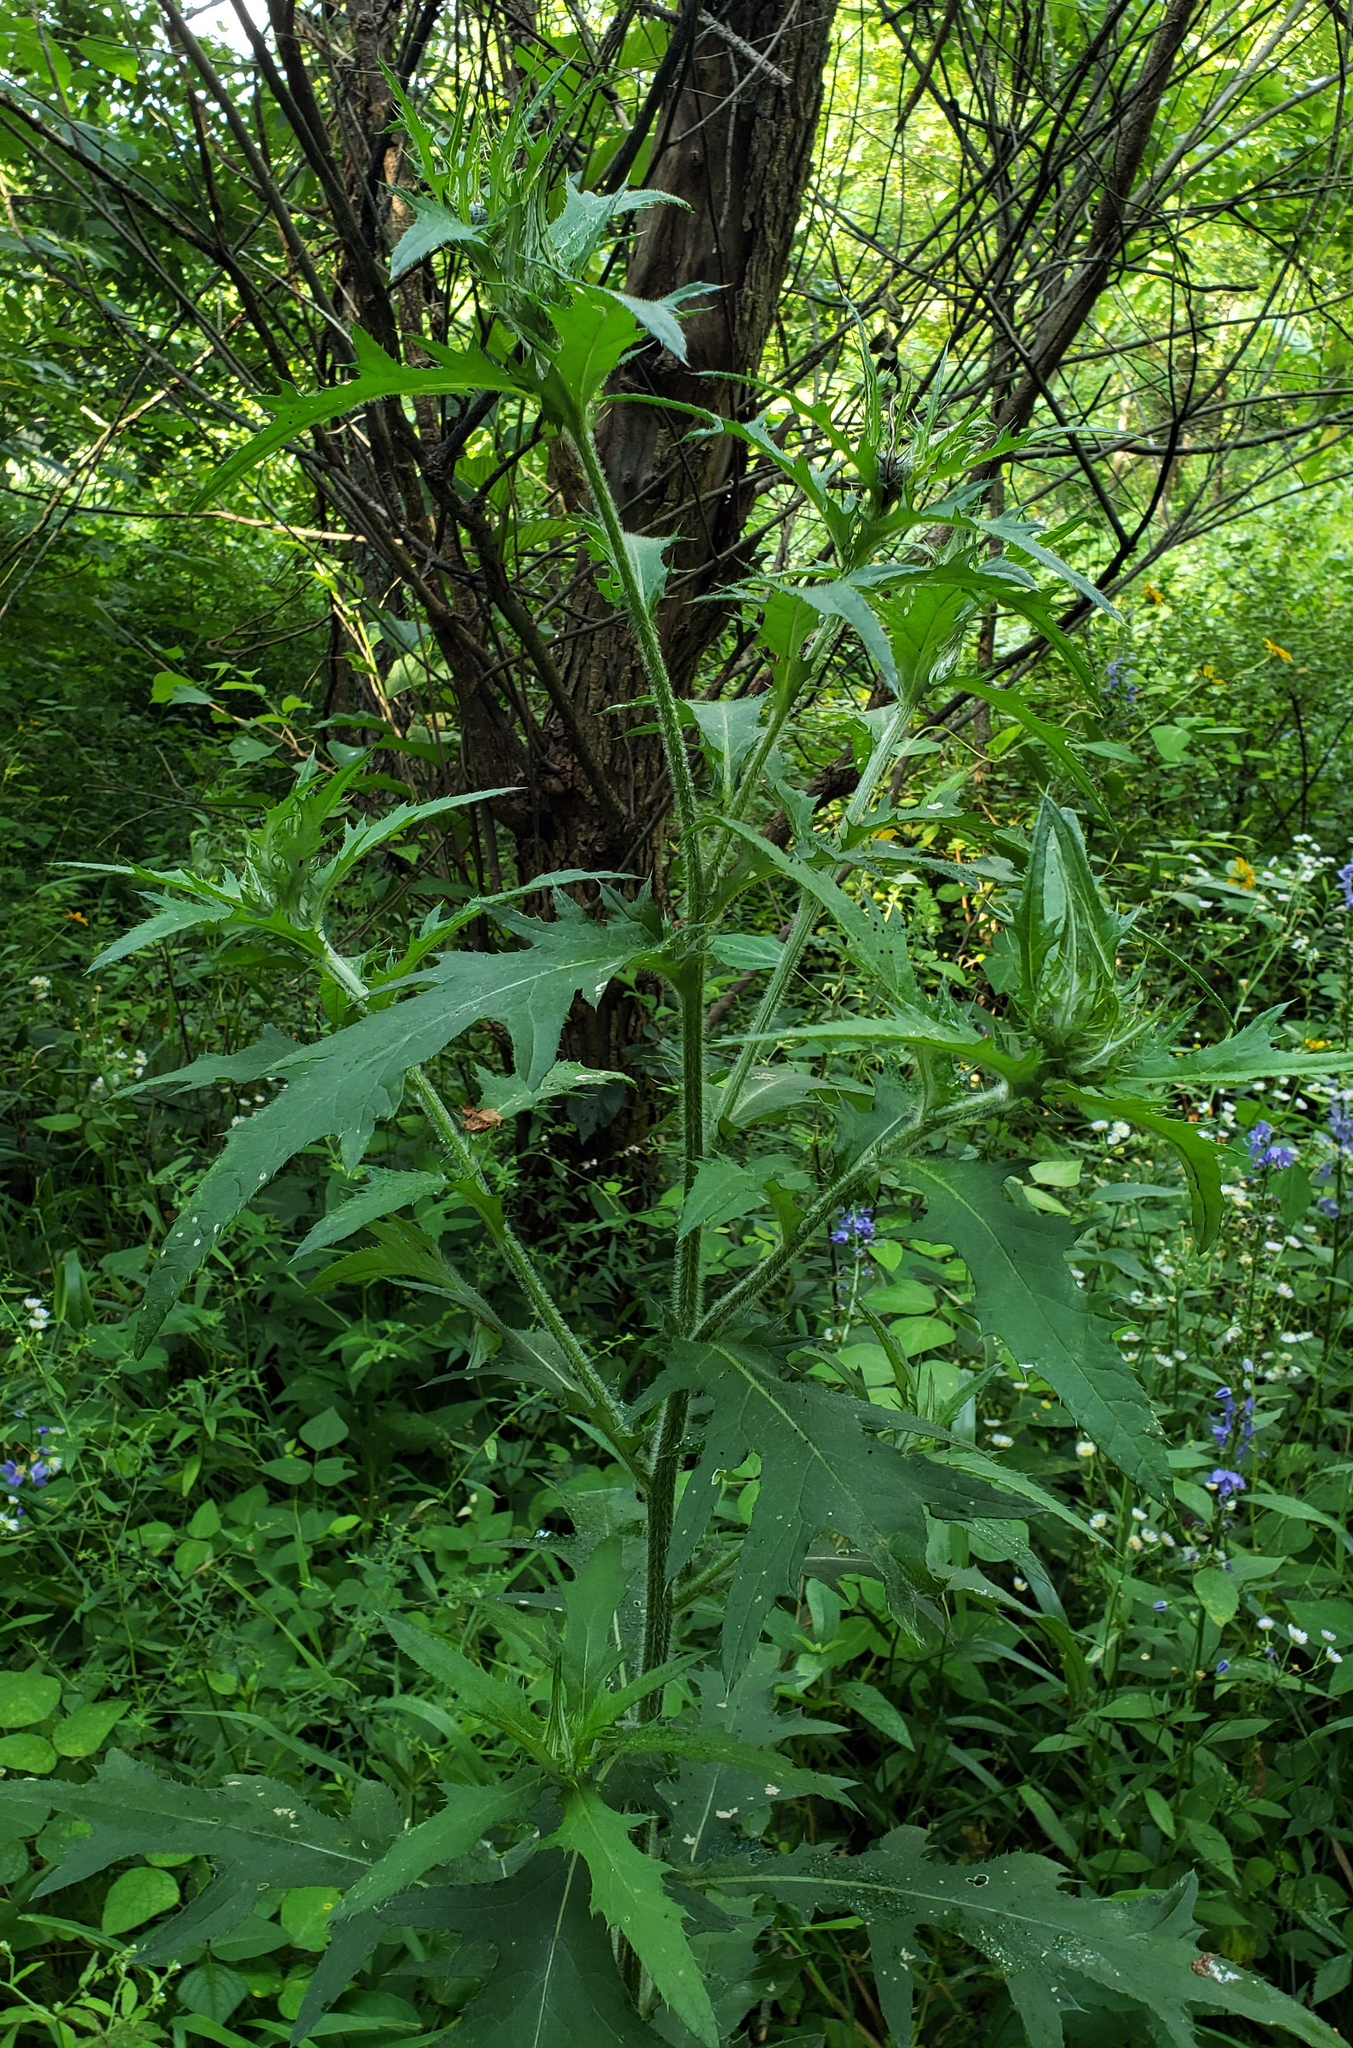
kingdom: Plantae
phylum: Tracheophyta
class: Magnoliopsida
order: Asterales
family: Asteraceae
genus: Cirsium
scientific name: Cirsium altissimum
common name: Roadside thistle
